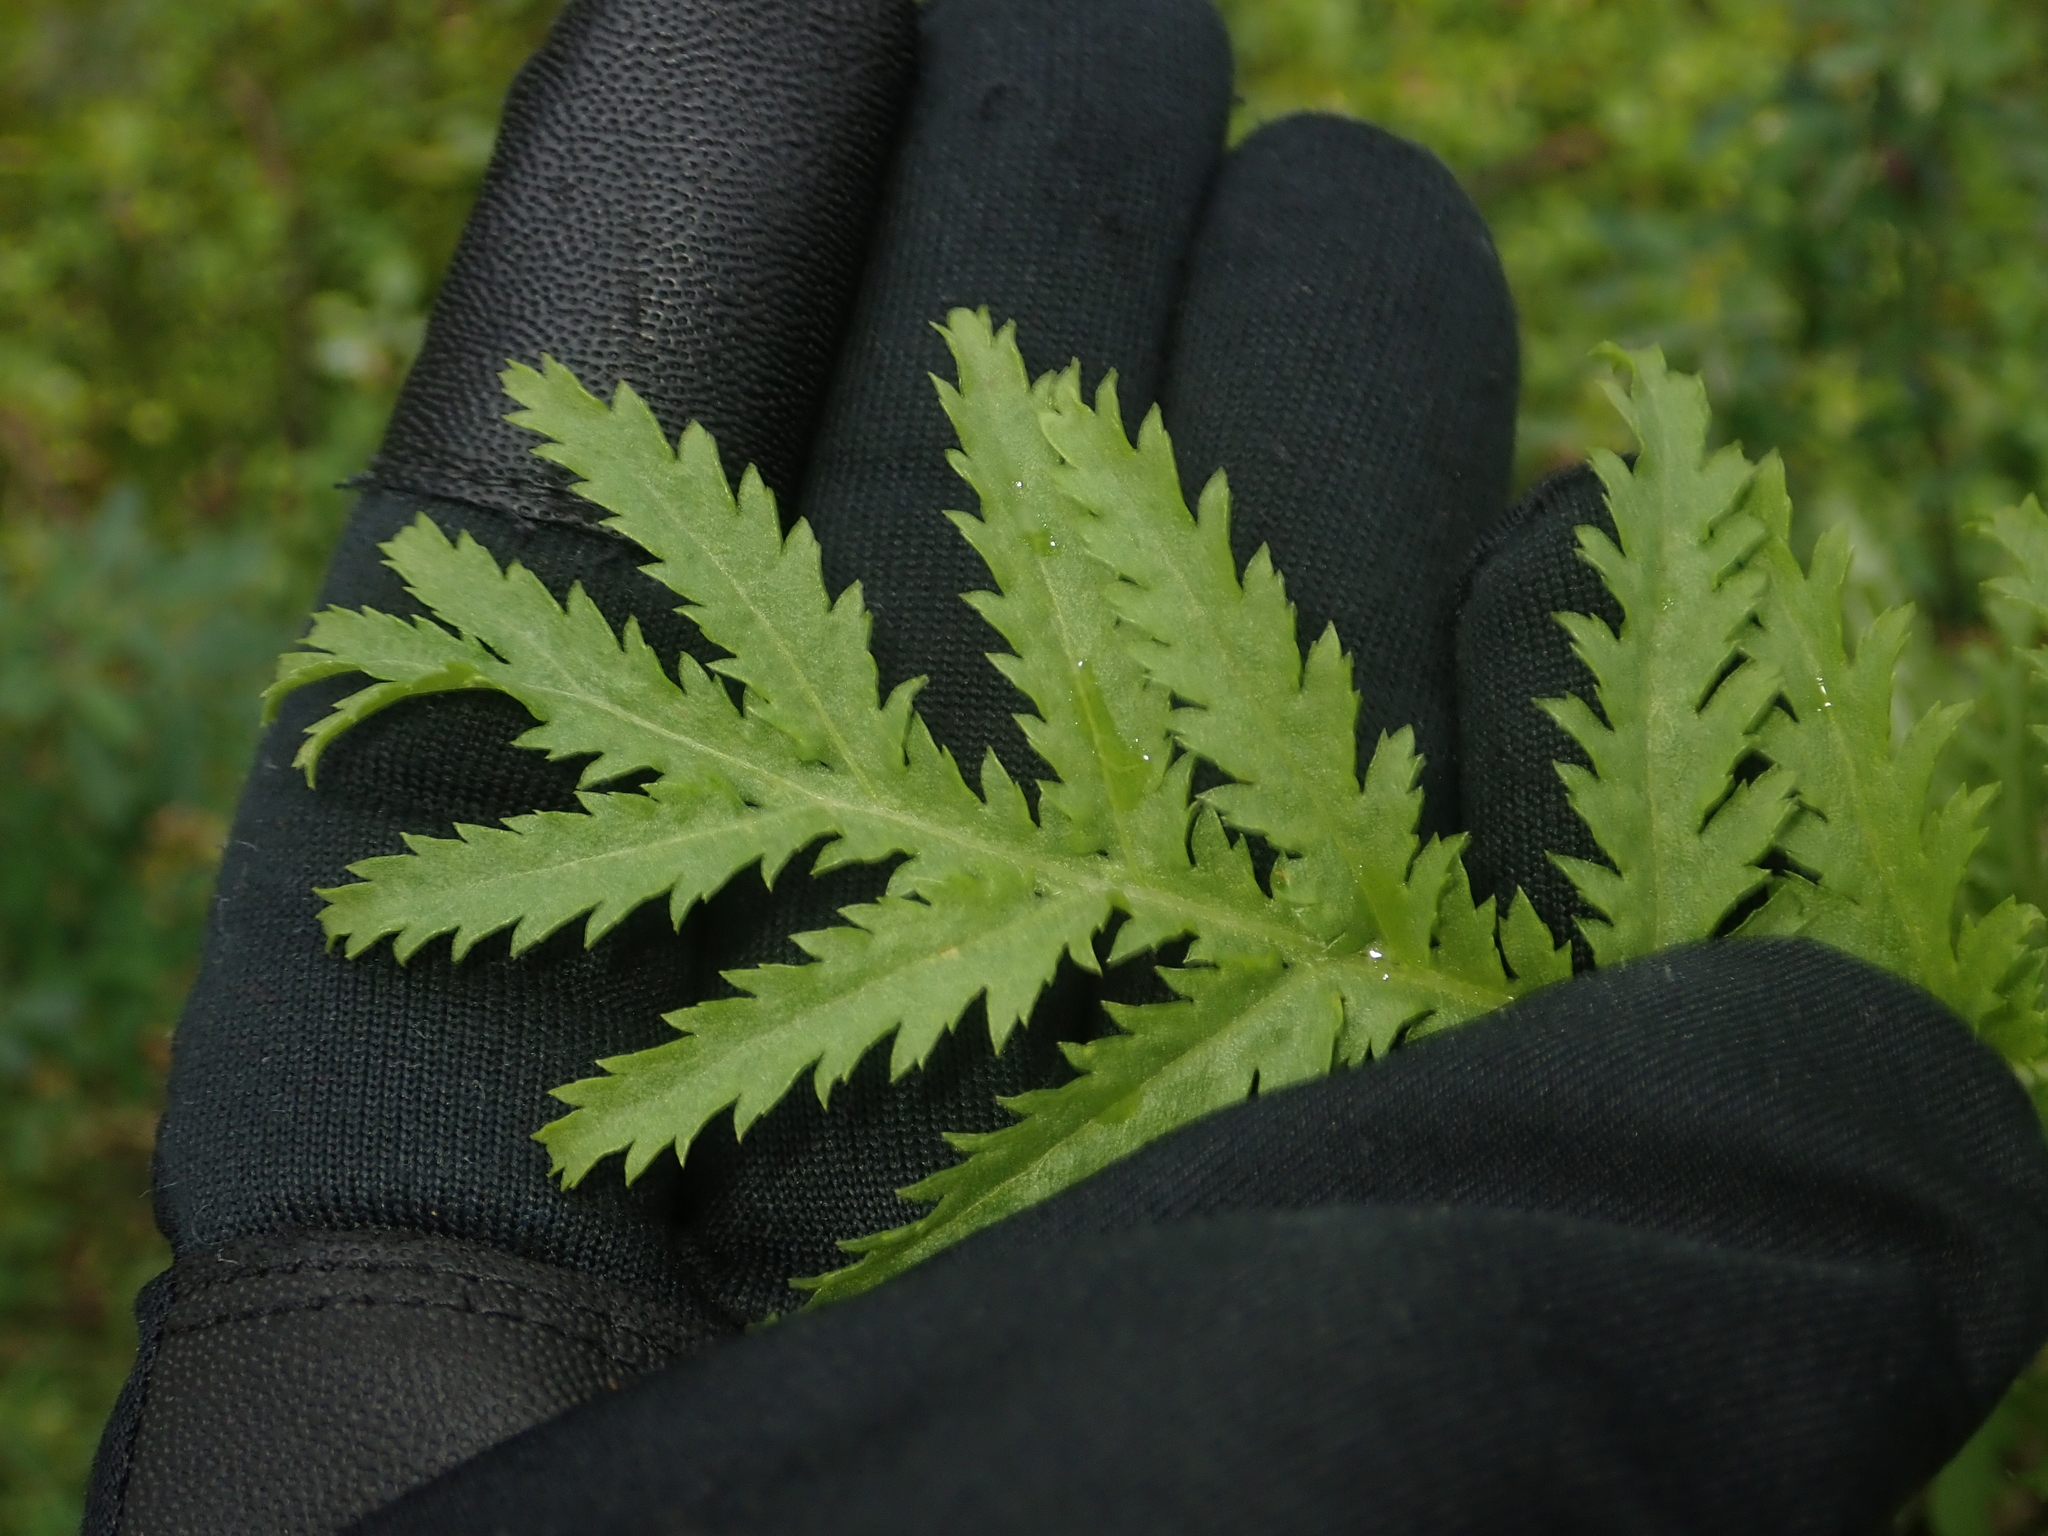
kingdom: Plantae
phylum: Tracheophyta
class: Magnoliopsida
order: Asterales
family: Asteraceae
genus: Tanacetum
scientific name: Tanacetum vulgare
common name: Common tansy
